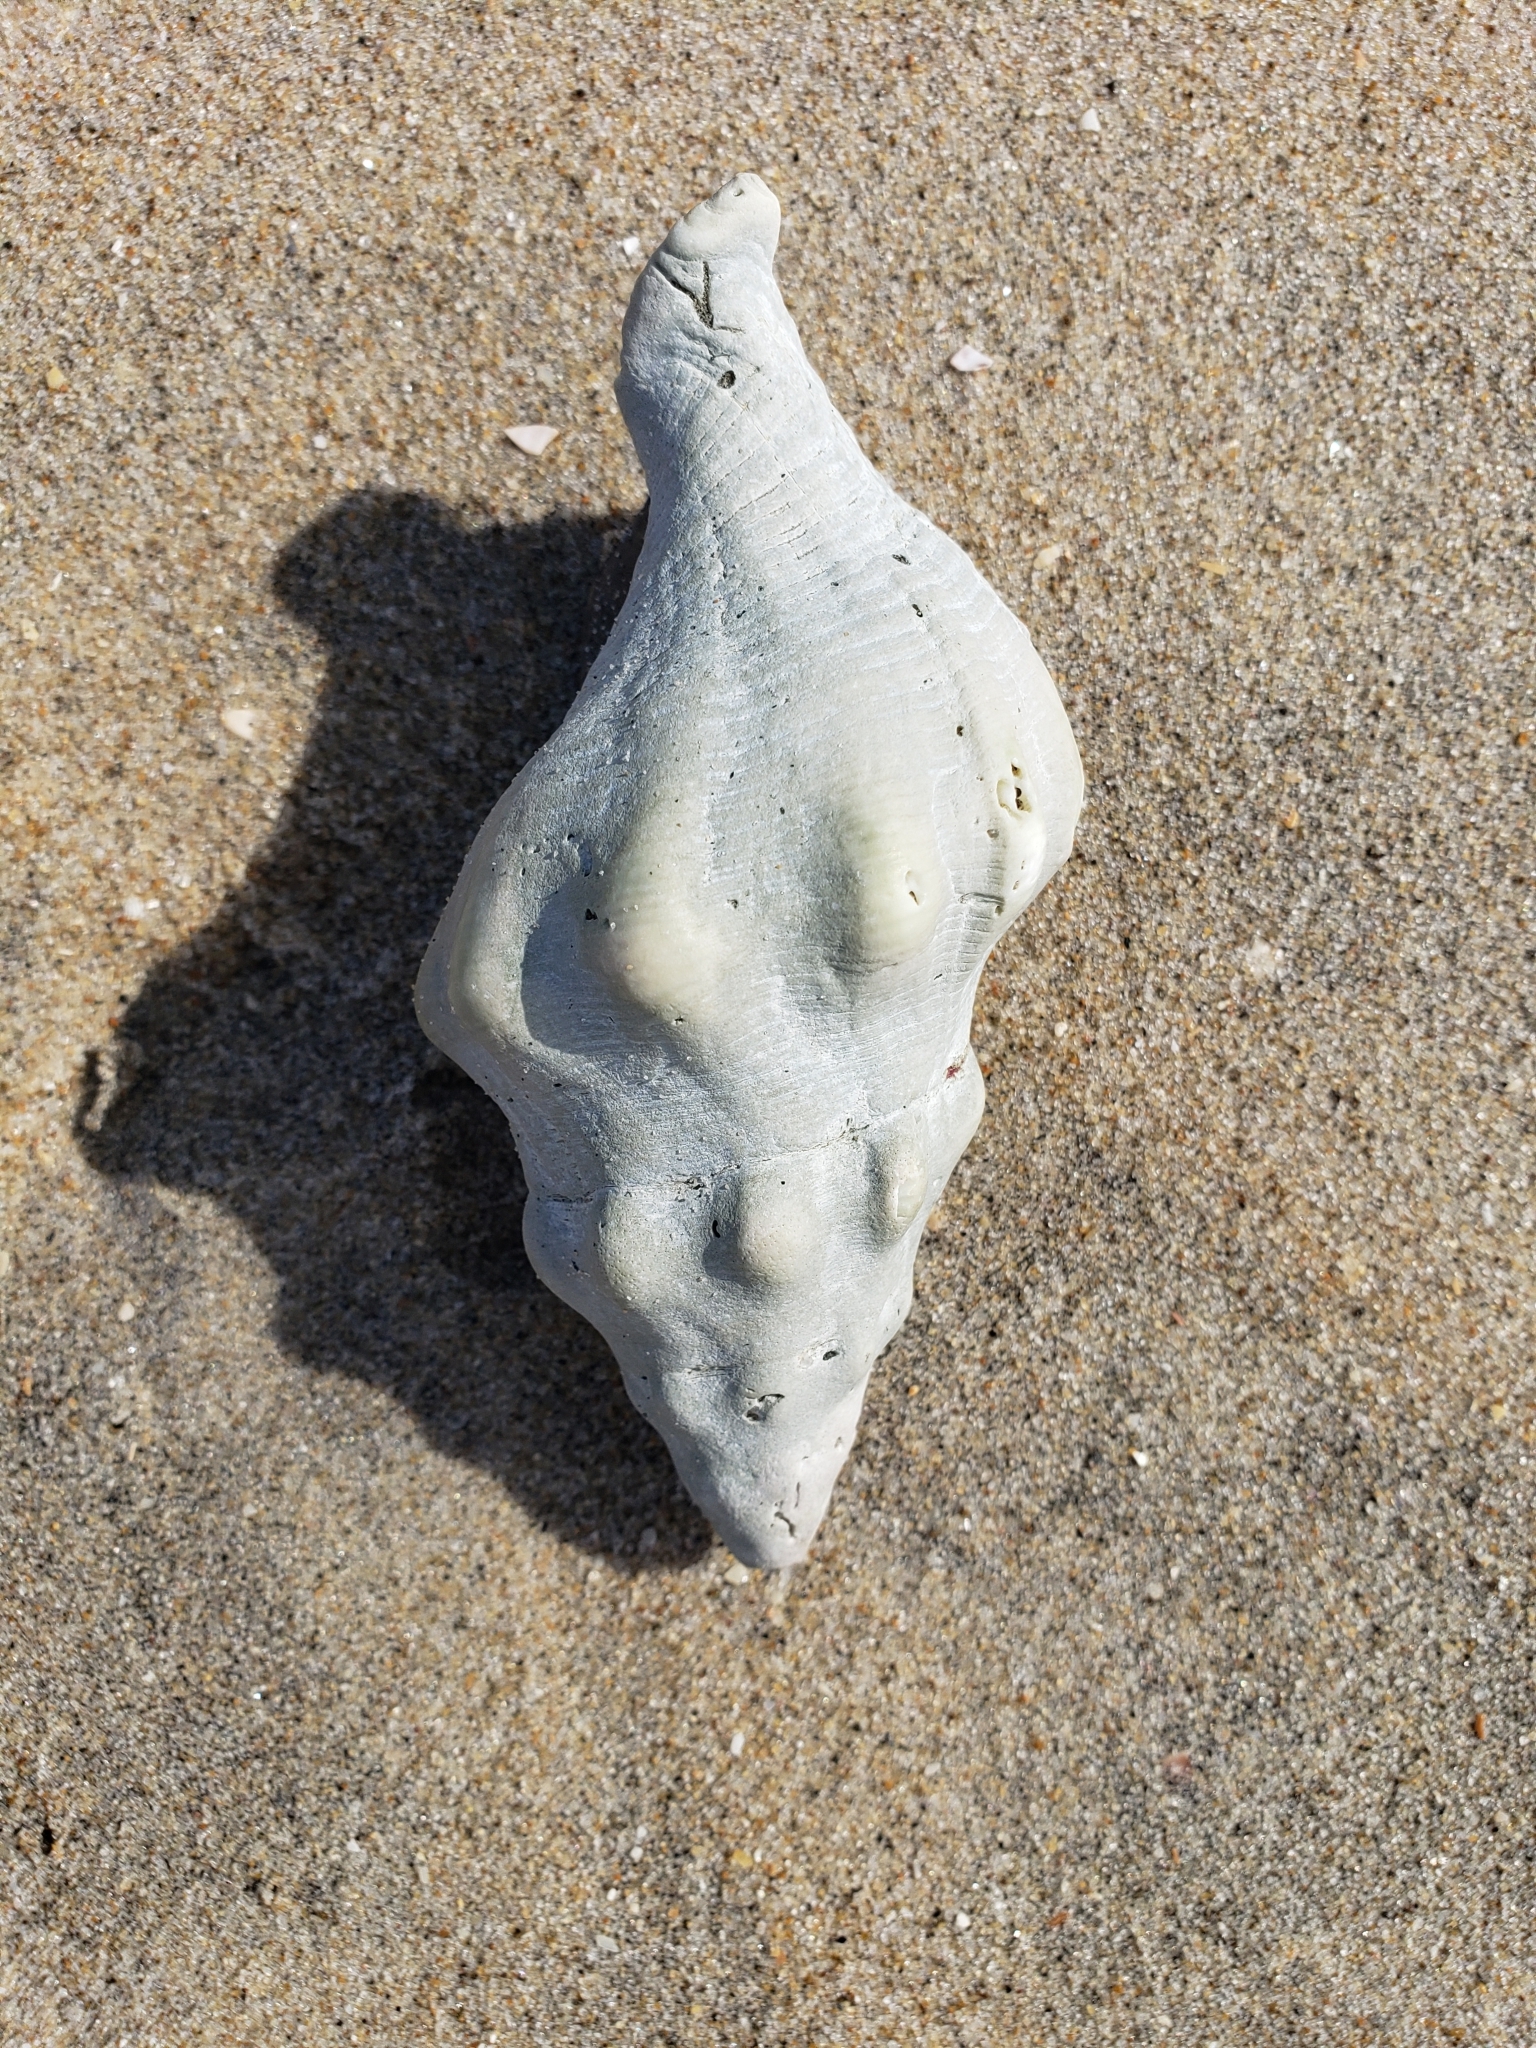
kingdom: Animalia
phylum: Mollusca
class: Gastropoda
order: Neogastropoda
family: Austrosiphonidae
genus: Kelletia
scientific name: Kelletia kelletii
